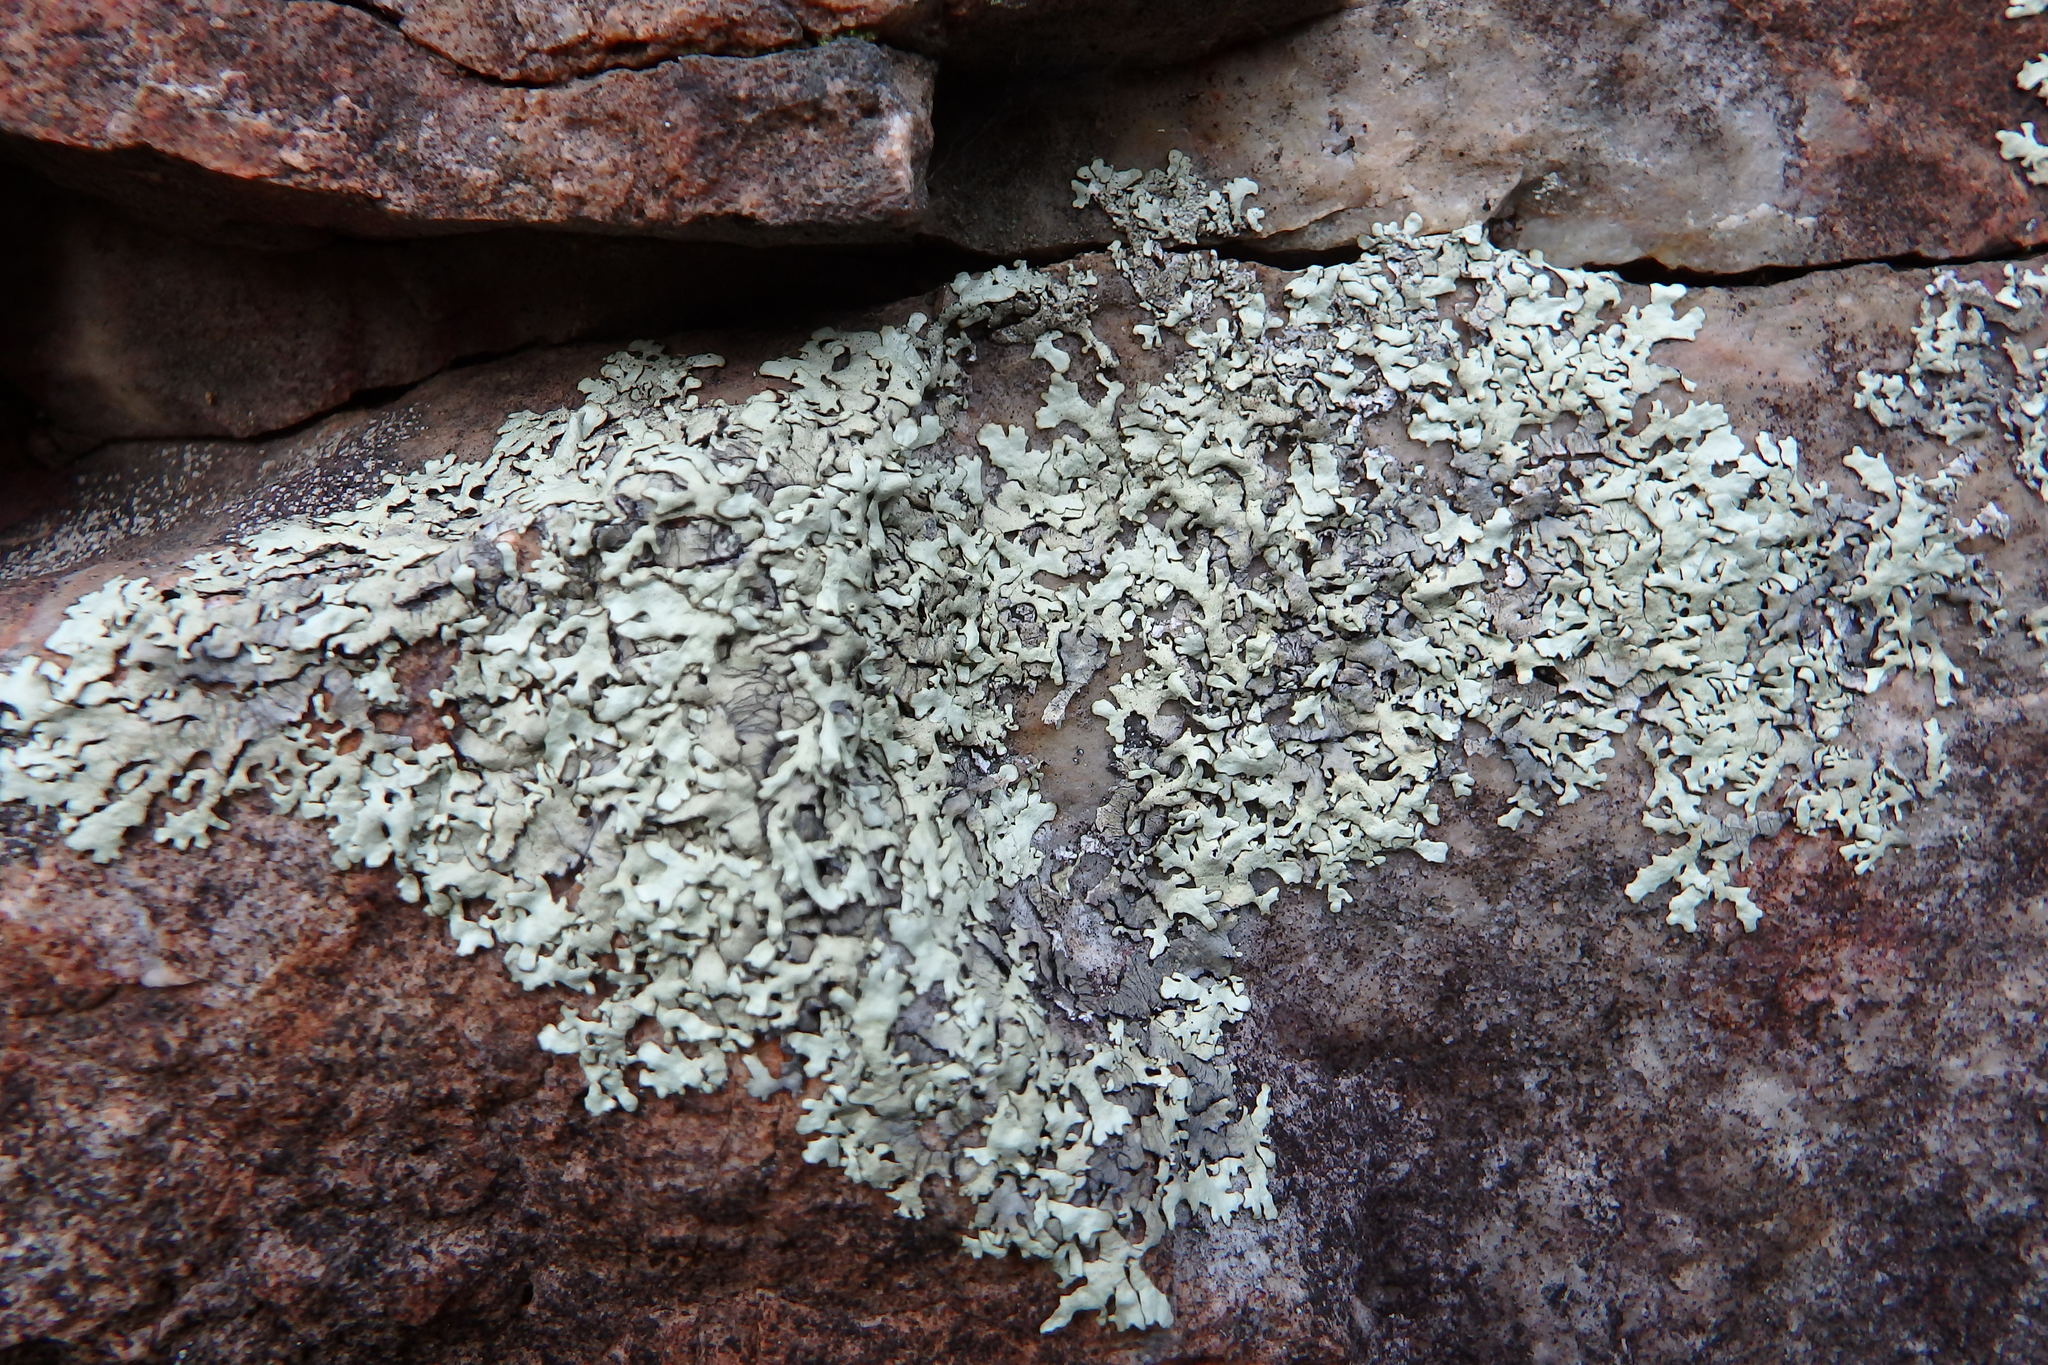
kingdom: Fungi
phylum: Ascomycota
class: Lecanoromycetes
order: Lecanorales
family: Parmeliaceae
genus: Xanthoparmelia
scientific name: Xanthoparmelia
